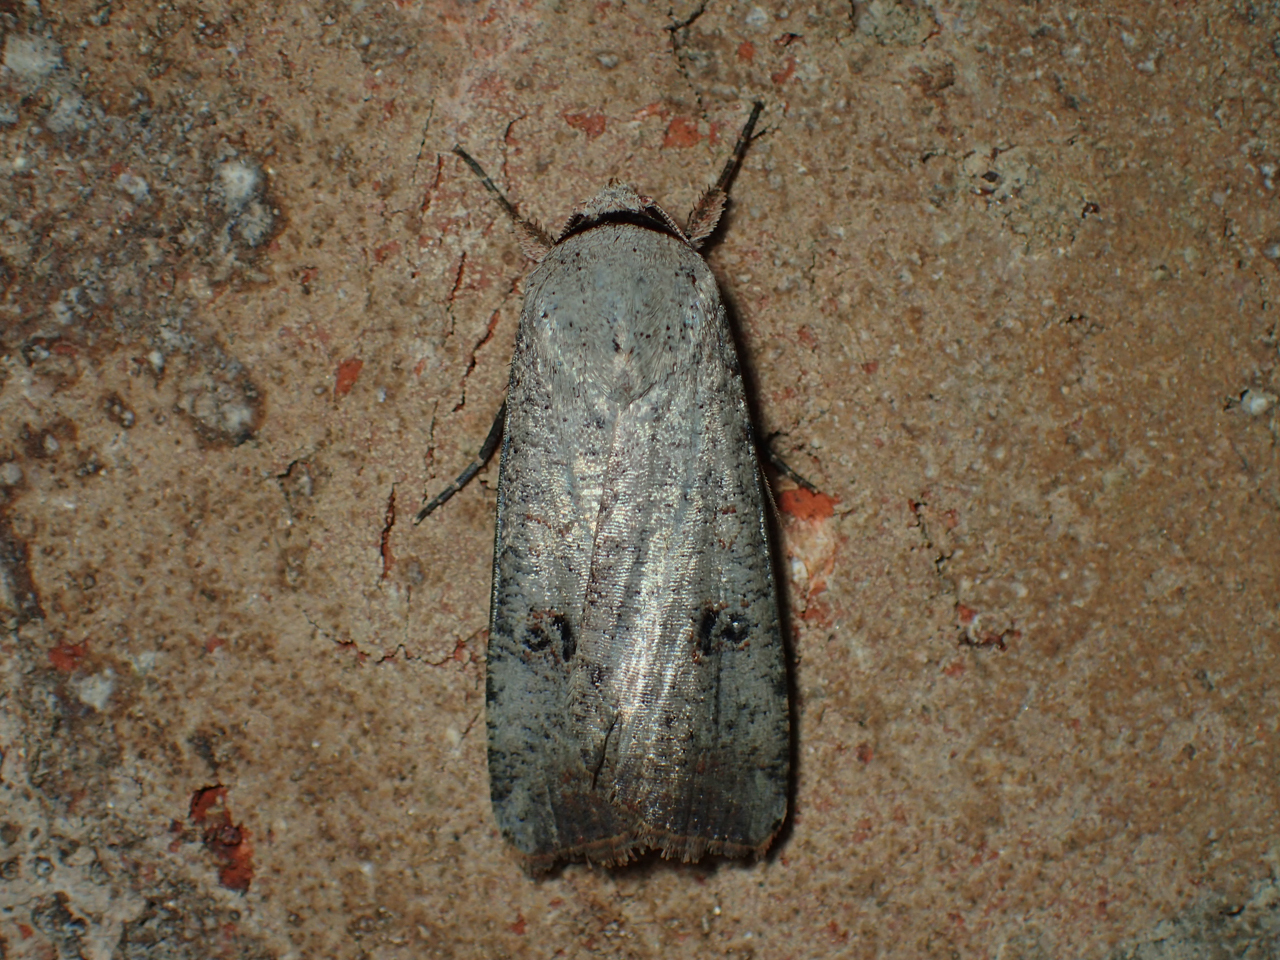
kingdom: Animalia
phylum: Arthropoda
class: Insecta
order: Lepidoptera
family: Noctuidae
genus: Anicla
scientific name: Anicla infecta
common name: Green cutworm
